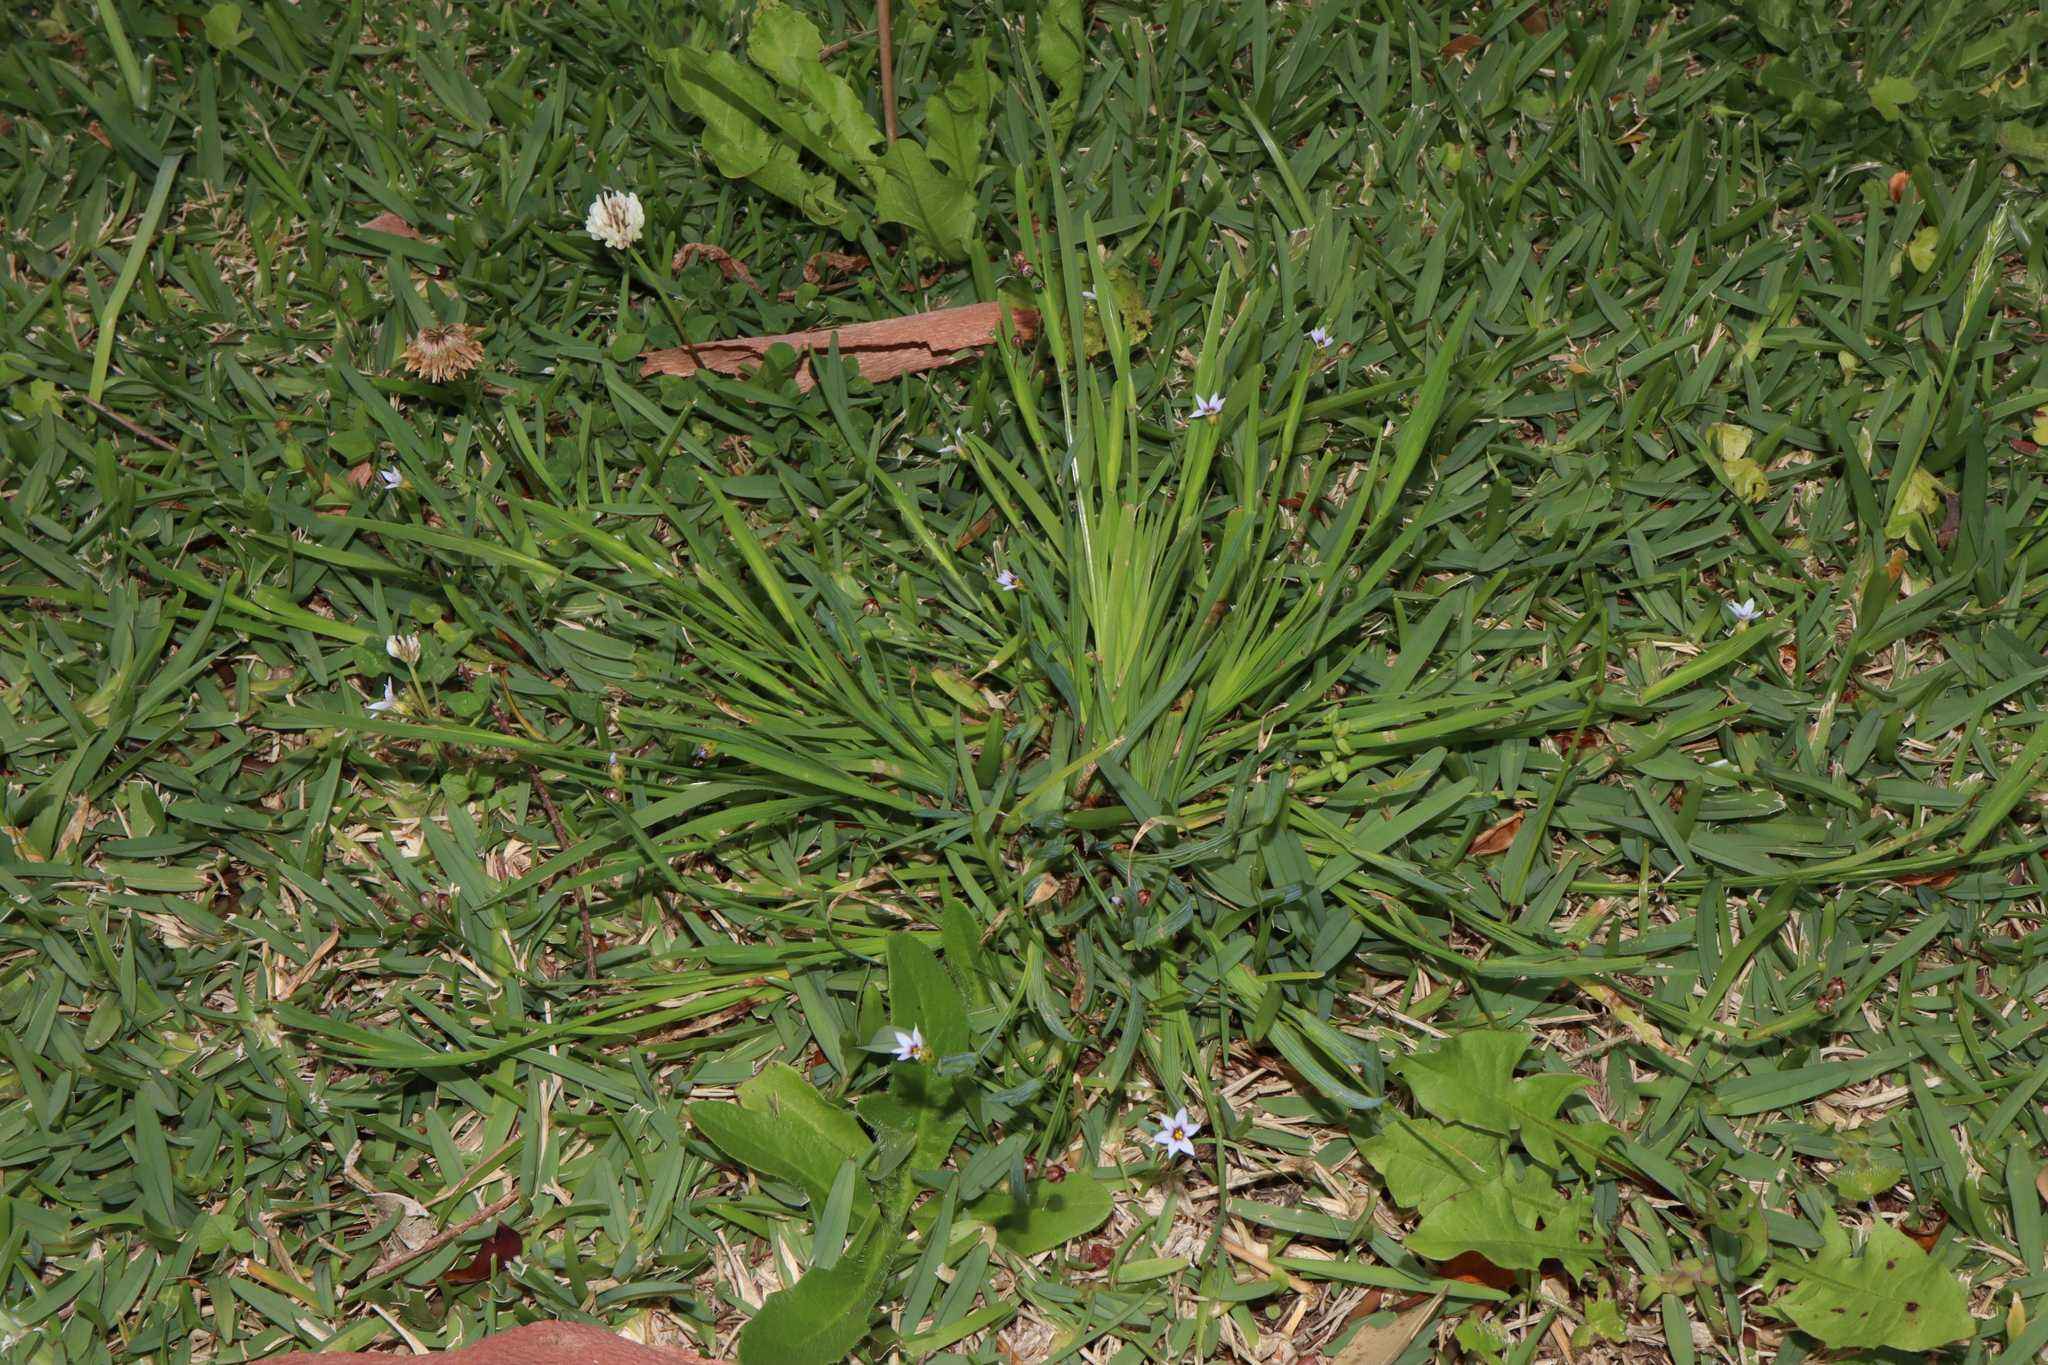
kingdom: Plantae
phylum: Tracheophyta
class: Liliopsida
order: Asparagales
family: Iridaceae
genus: Sisyrinchium
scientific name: Sisyrinchium micranthum
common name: Bermuda pigroot
